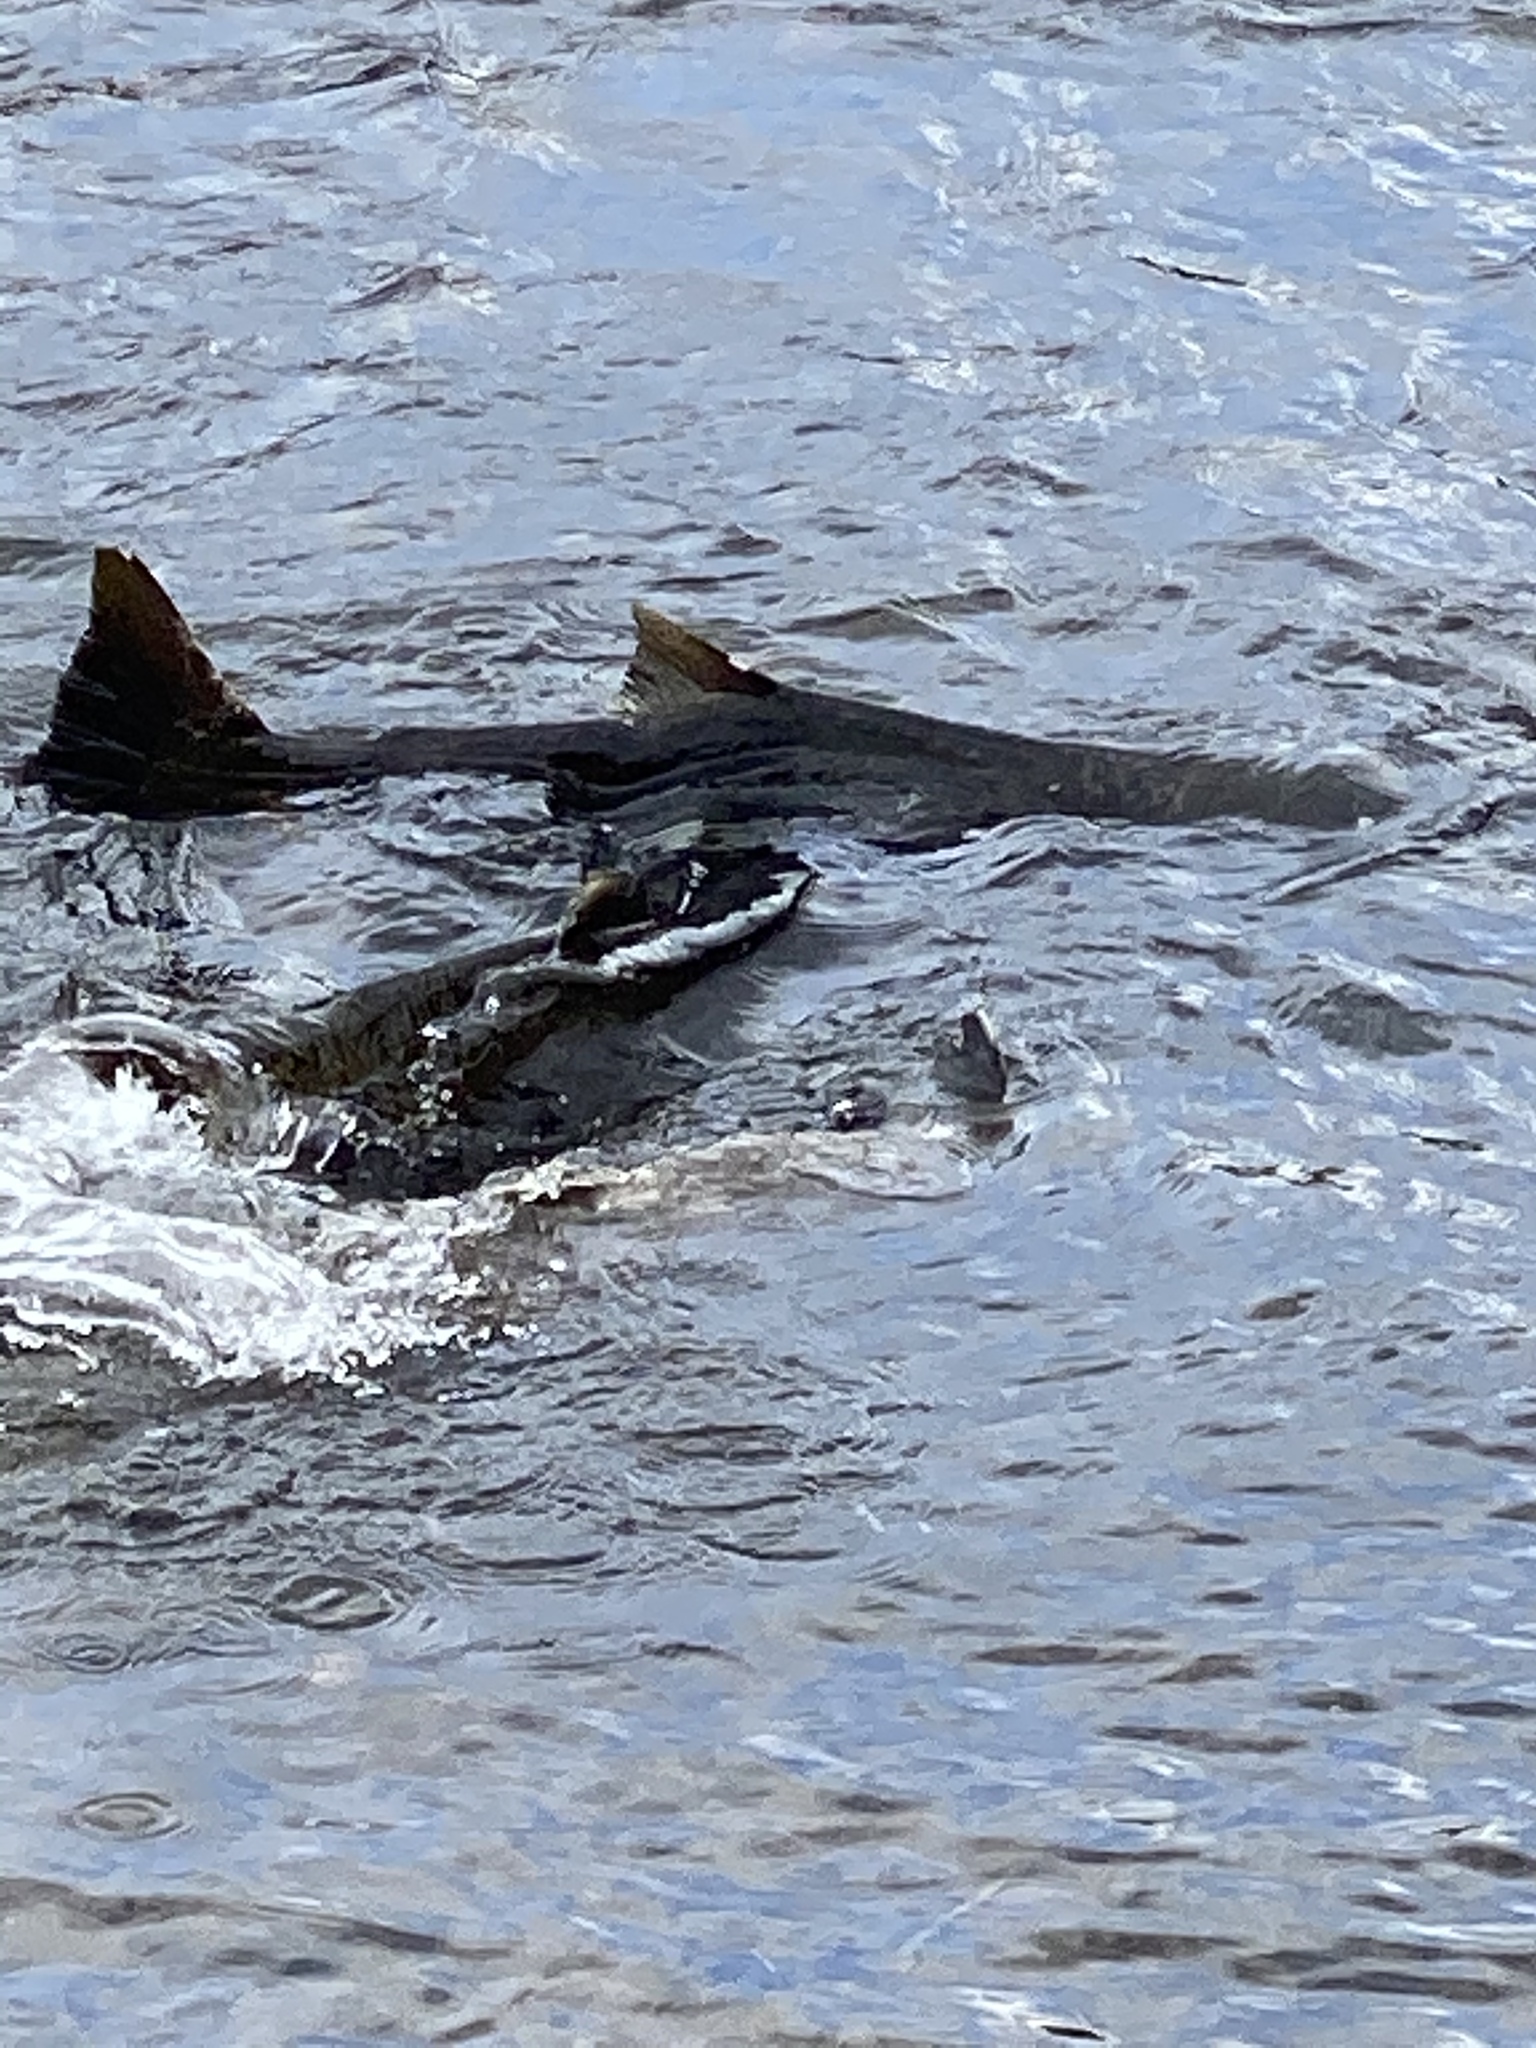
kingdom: Animalia
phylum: Chordata
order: Salmoniformes
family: Salmonidae
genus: Oncorhynchus
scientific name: Oncorhynchus tshawytscha
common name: Chinook salmon
